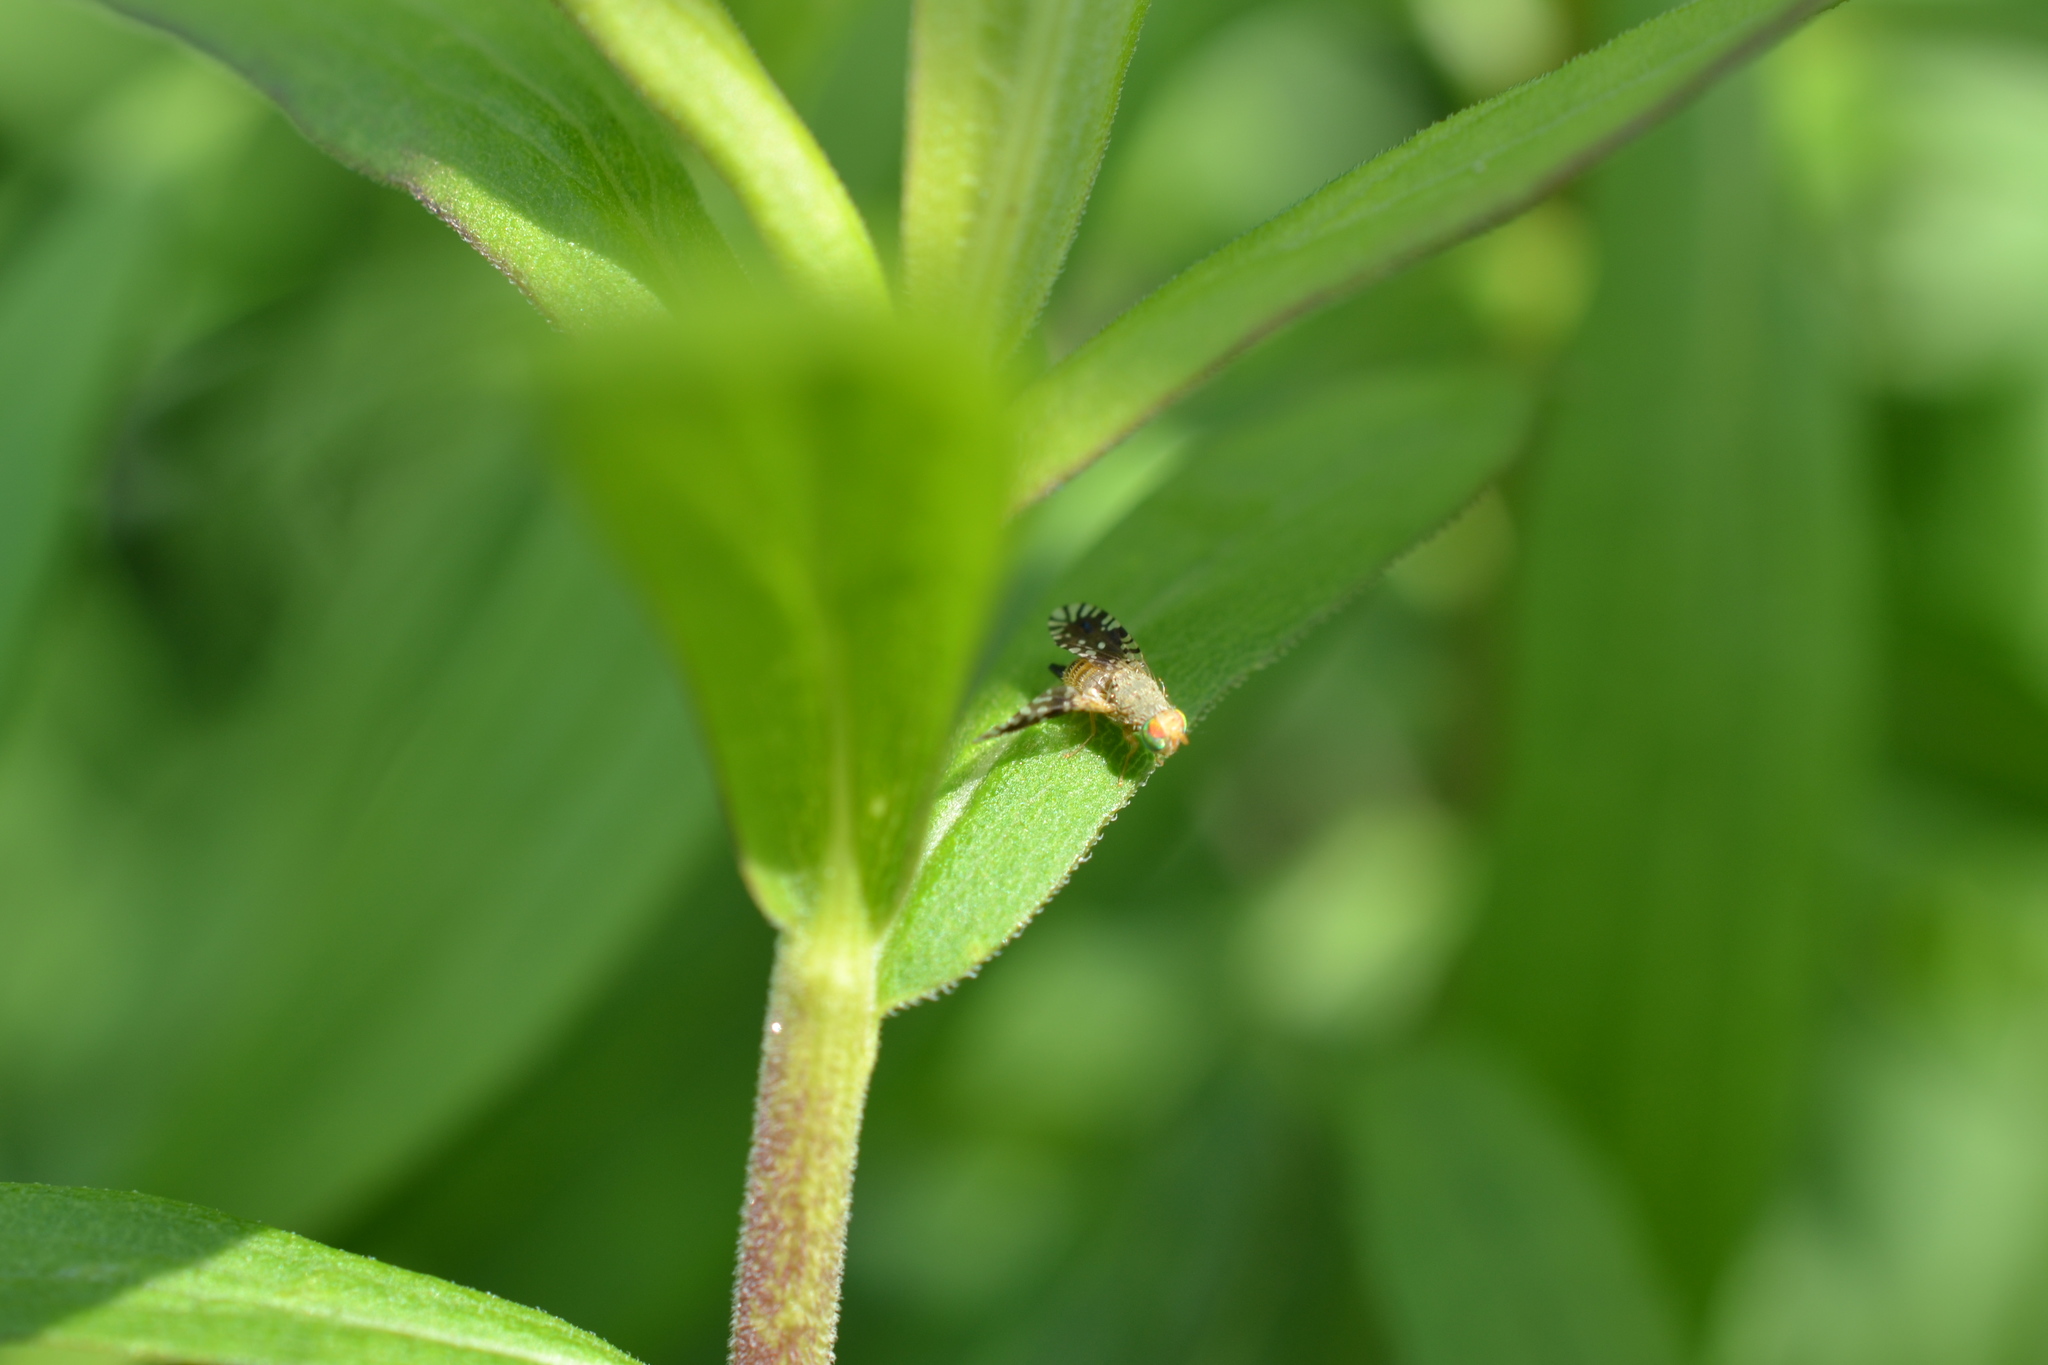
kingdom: Animalia
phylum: Arthropoda
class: Insecta
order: Diptera
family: Tephritidae
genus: Euaresta
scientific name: Euaresta bella
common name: Common ragweed fruit fly
